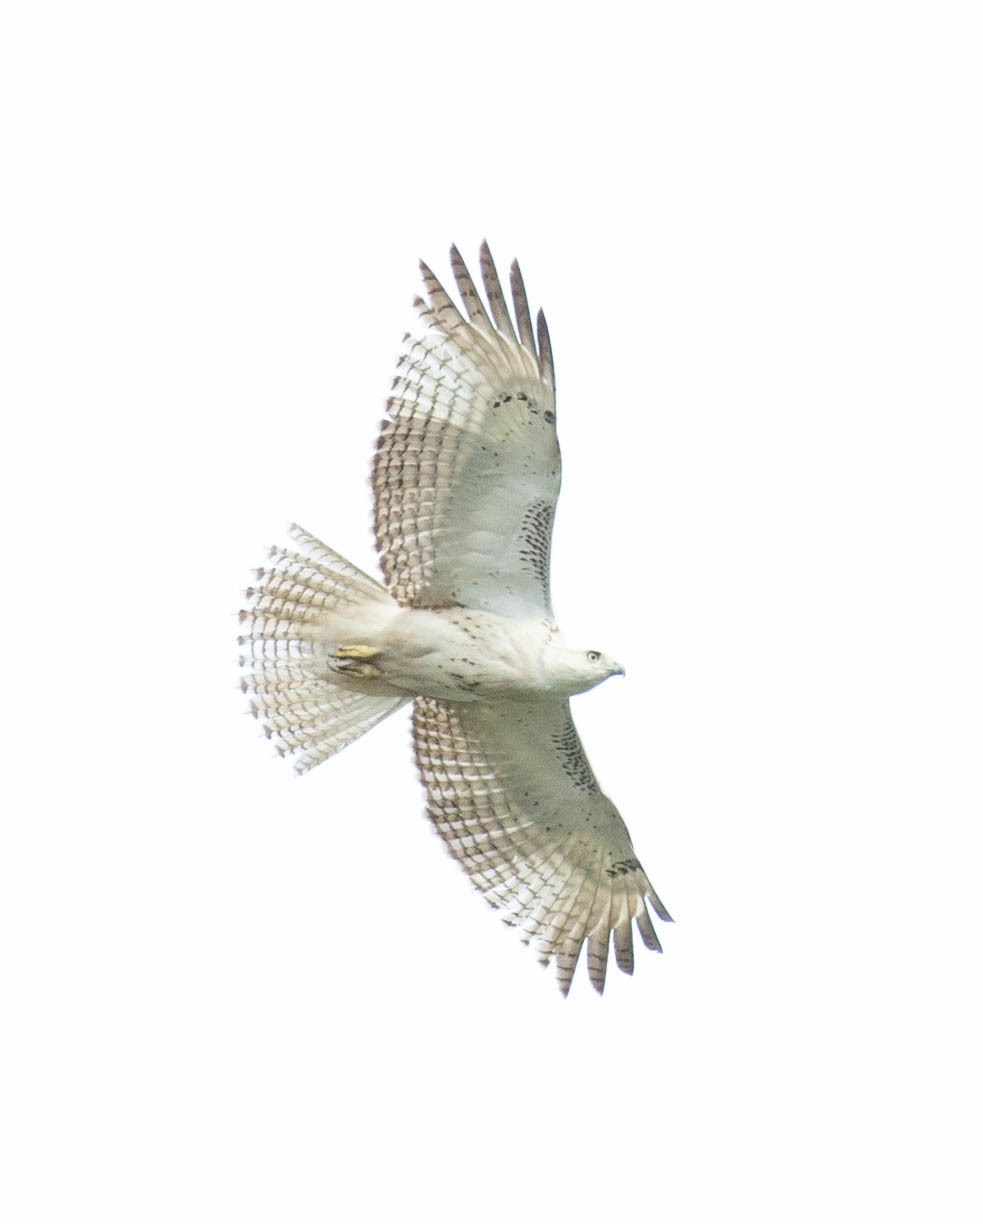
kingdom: Animalia
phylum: Chordata
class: Aves
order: Accipitriformes
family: Accipitridae
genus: Buteo
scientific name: Buteo jamaicensis
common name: Red-tailed hawk
